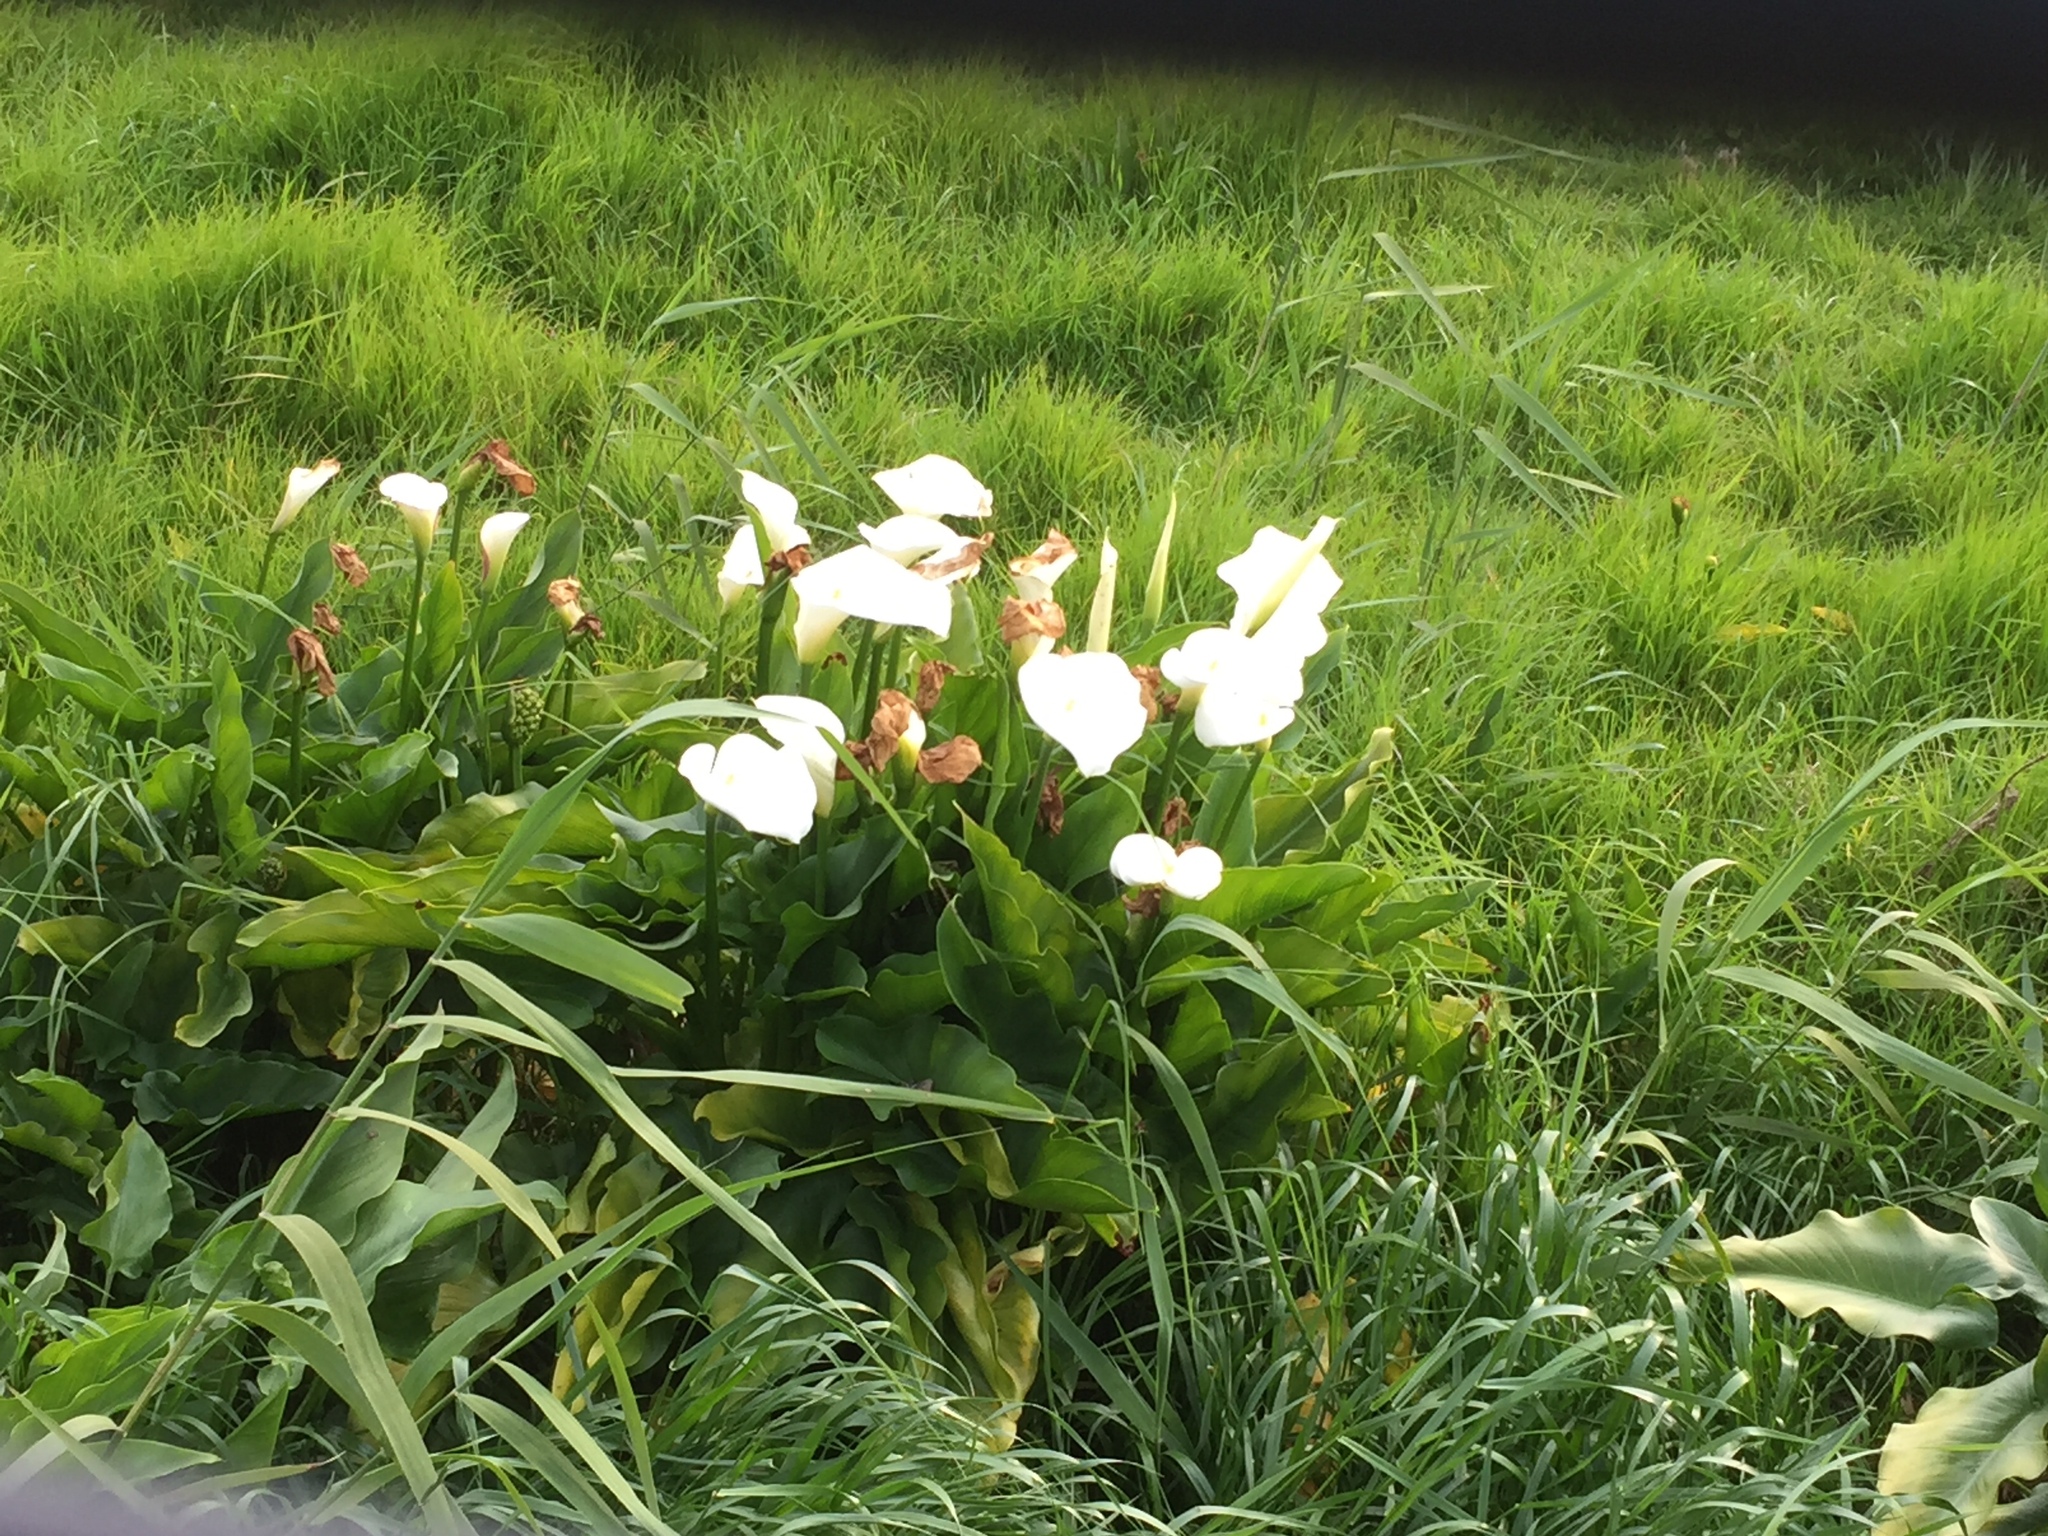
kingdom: Plantae
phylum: Tracheophyta
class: Liliopsida
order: Alismatales
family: Araceae
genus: Zantedeschia
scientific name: Zantedeschia aethiopica
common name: Altar-lily
